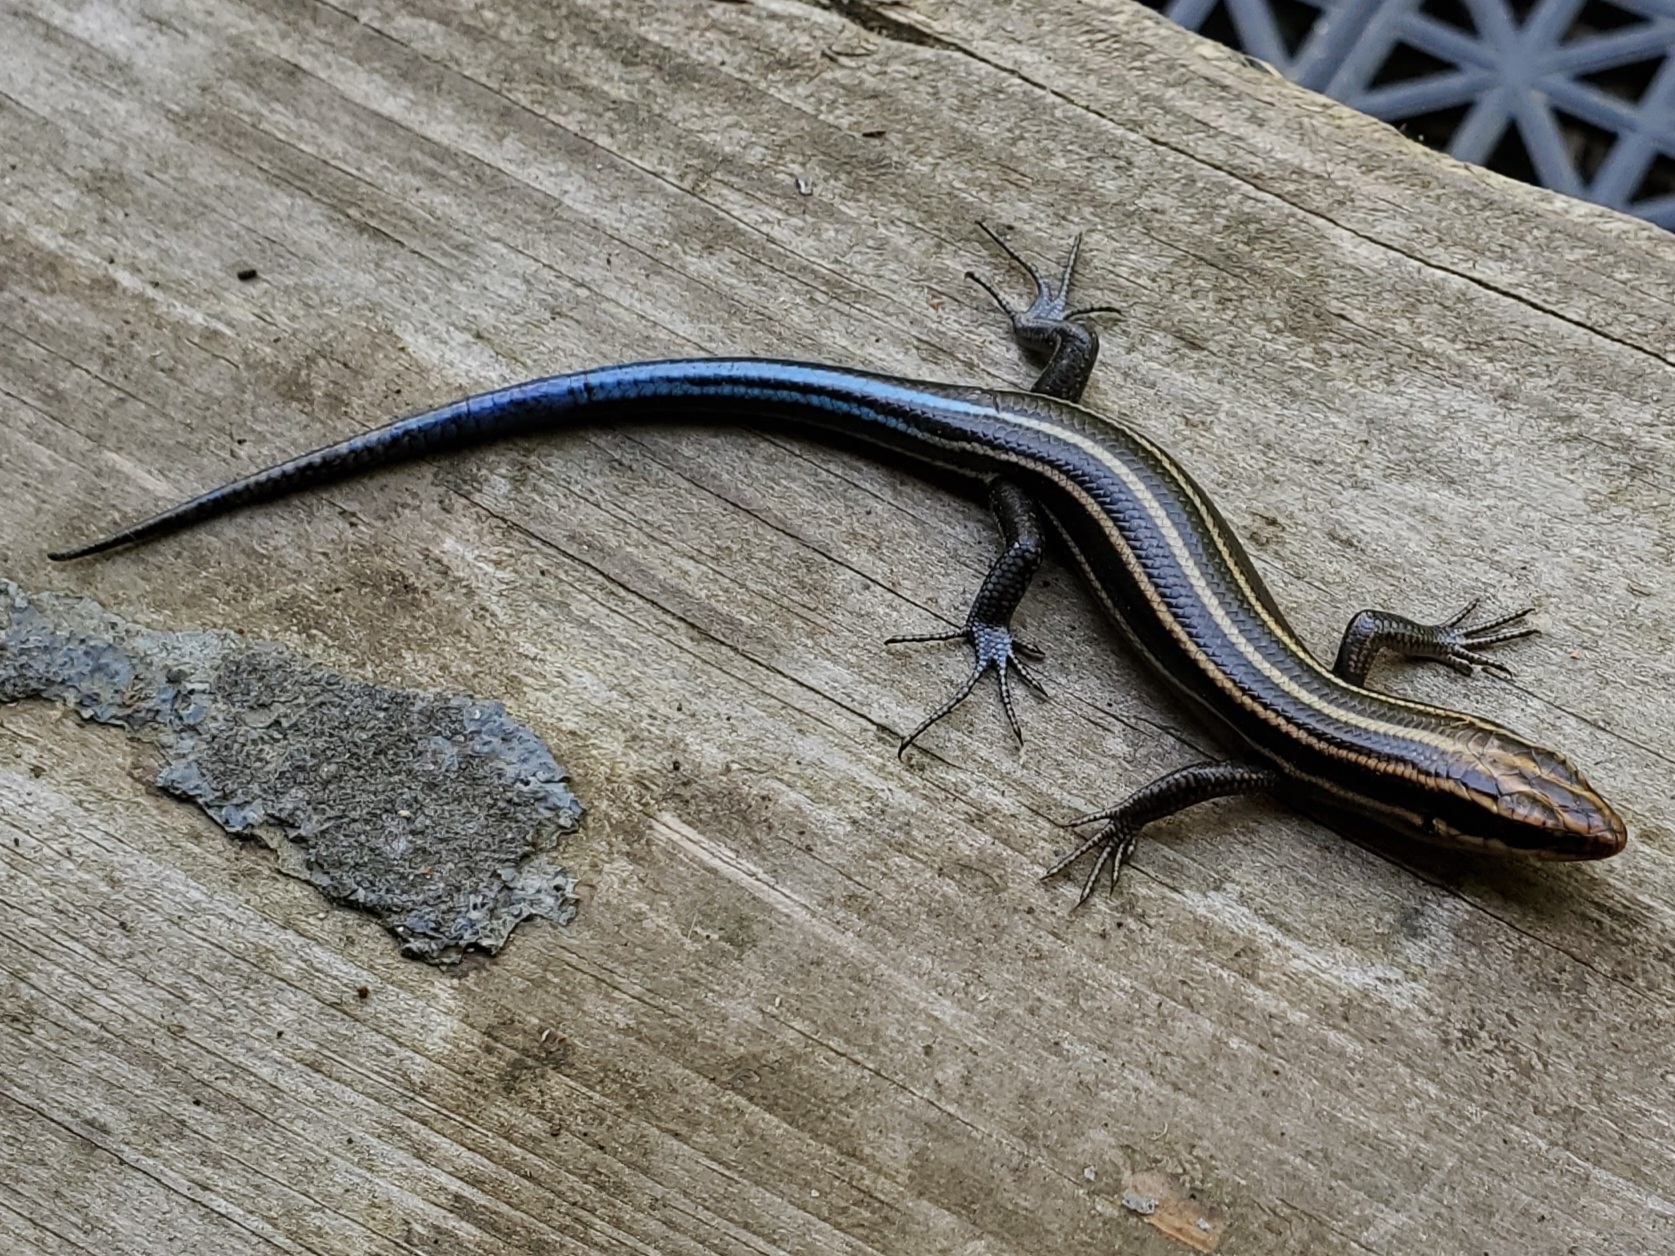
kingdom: Animalia
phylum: Chordata
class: Squamata
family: Scincidae
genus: Plestiodon
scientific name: Plestiodon fasciatus
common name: Five-lined skink
